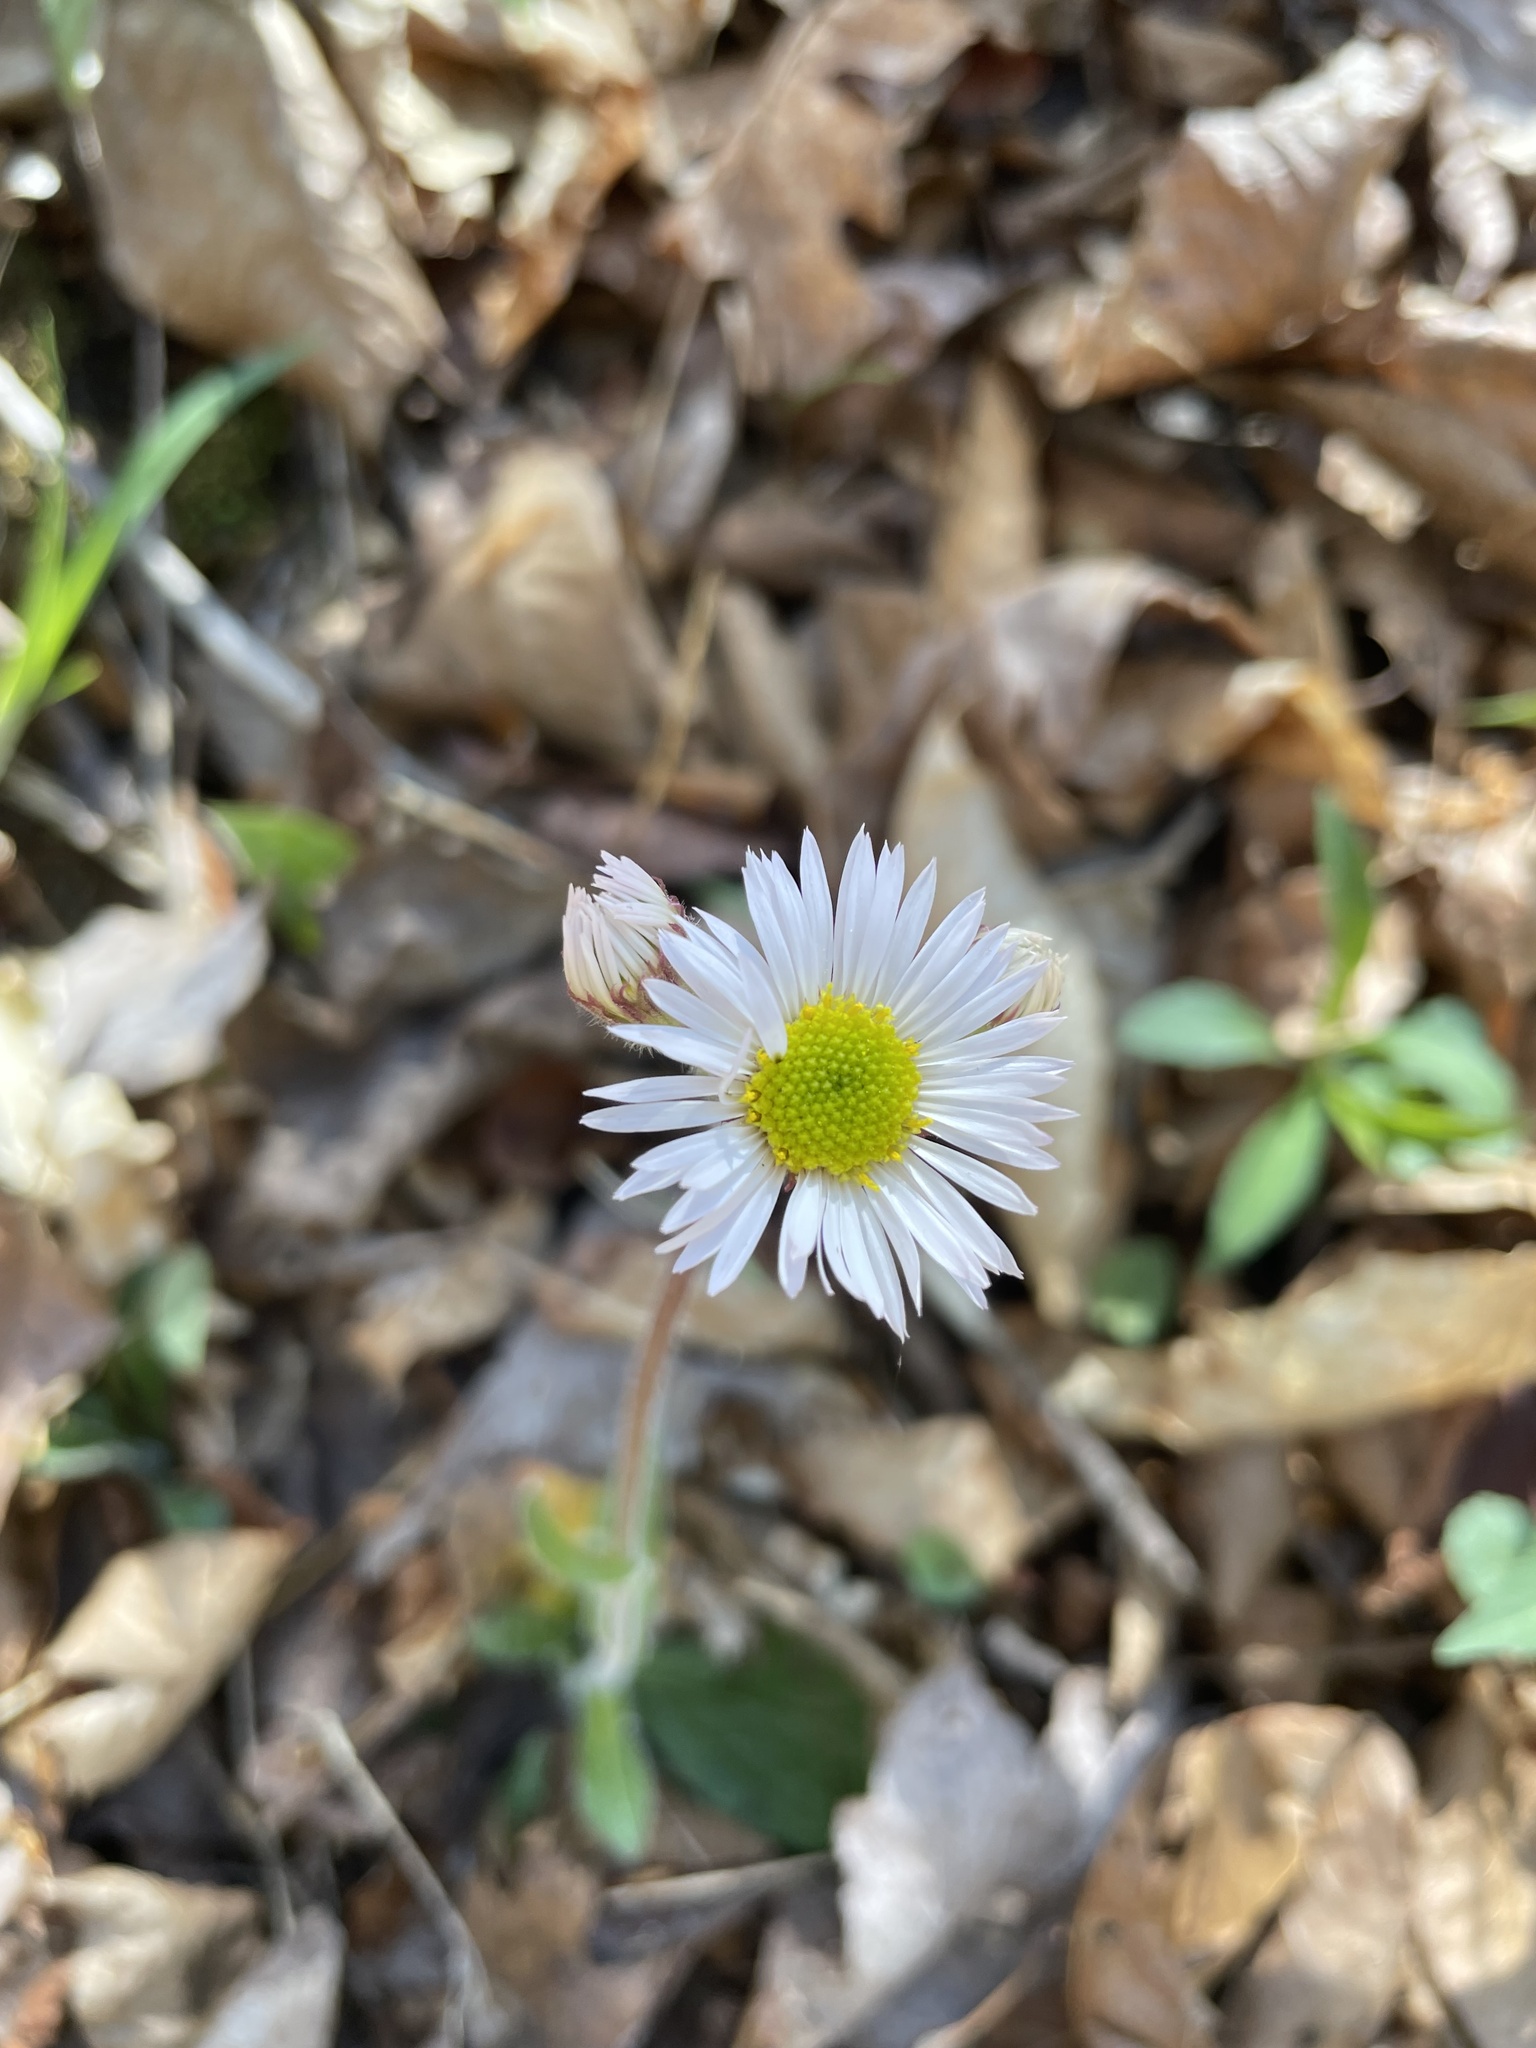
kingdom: Plantae
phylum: Tracheophyta
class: Magnoliopsida
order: Asterales
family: Asteraceae
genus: Erigeron
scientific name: Erigeron pulchellus
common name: Hairy fleabane
